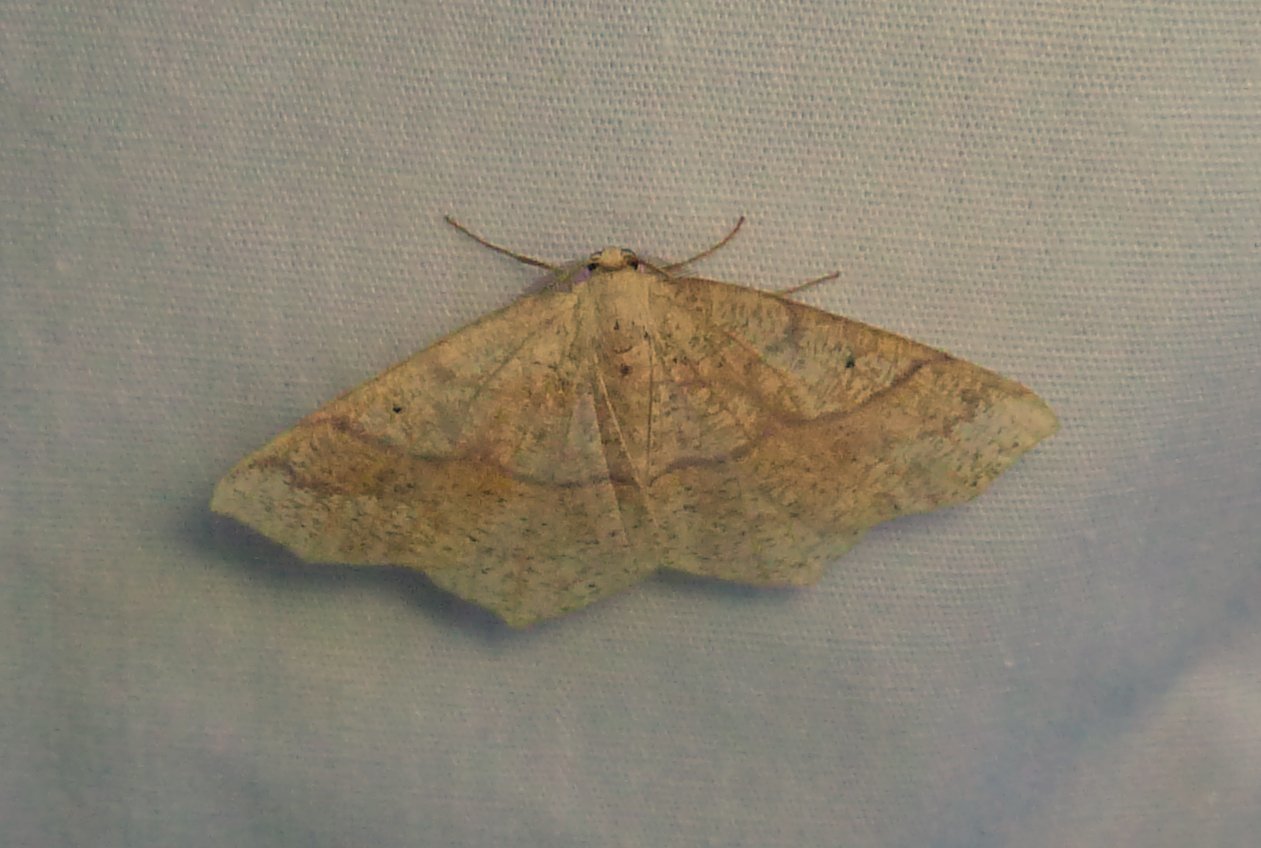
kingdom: Animalia
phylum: Arthropoda
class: Insecta
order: Lepidoptera
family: Geometridae
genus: Besma
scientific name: Besma quercivoraria
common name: Oak besma
